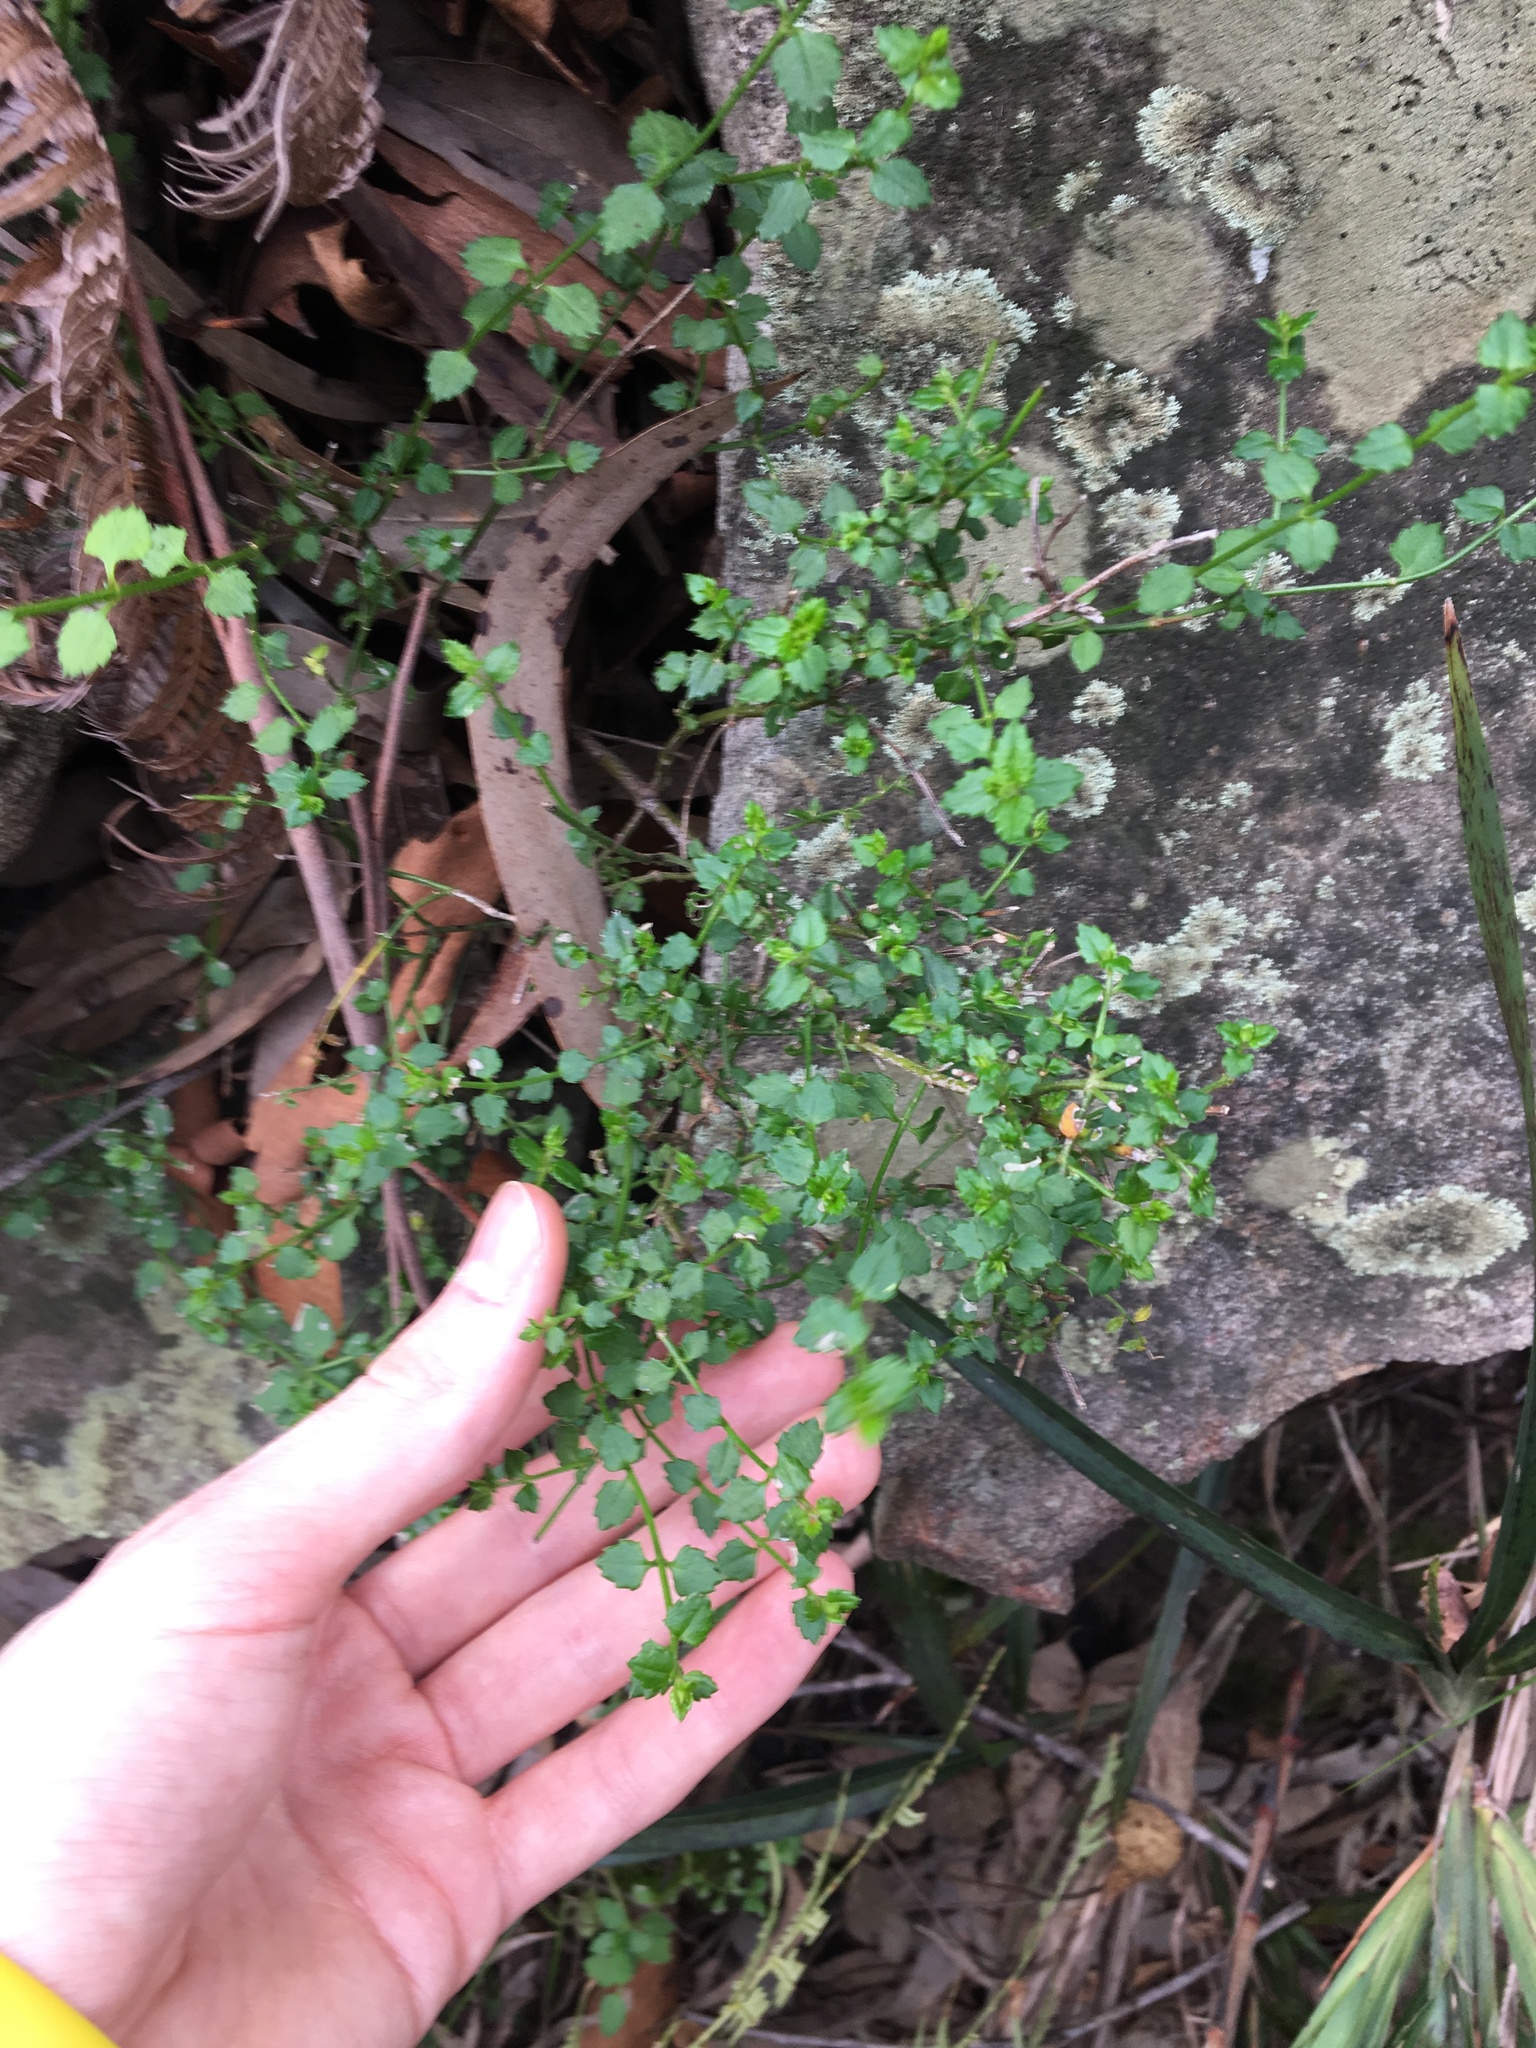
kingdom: Plantae
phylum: Tracheophyta
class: Magnoliopsida
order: Saxifragales
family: Haloragaceae
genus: Gonocarpus
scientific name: Gonocarpus tetragynus
